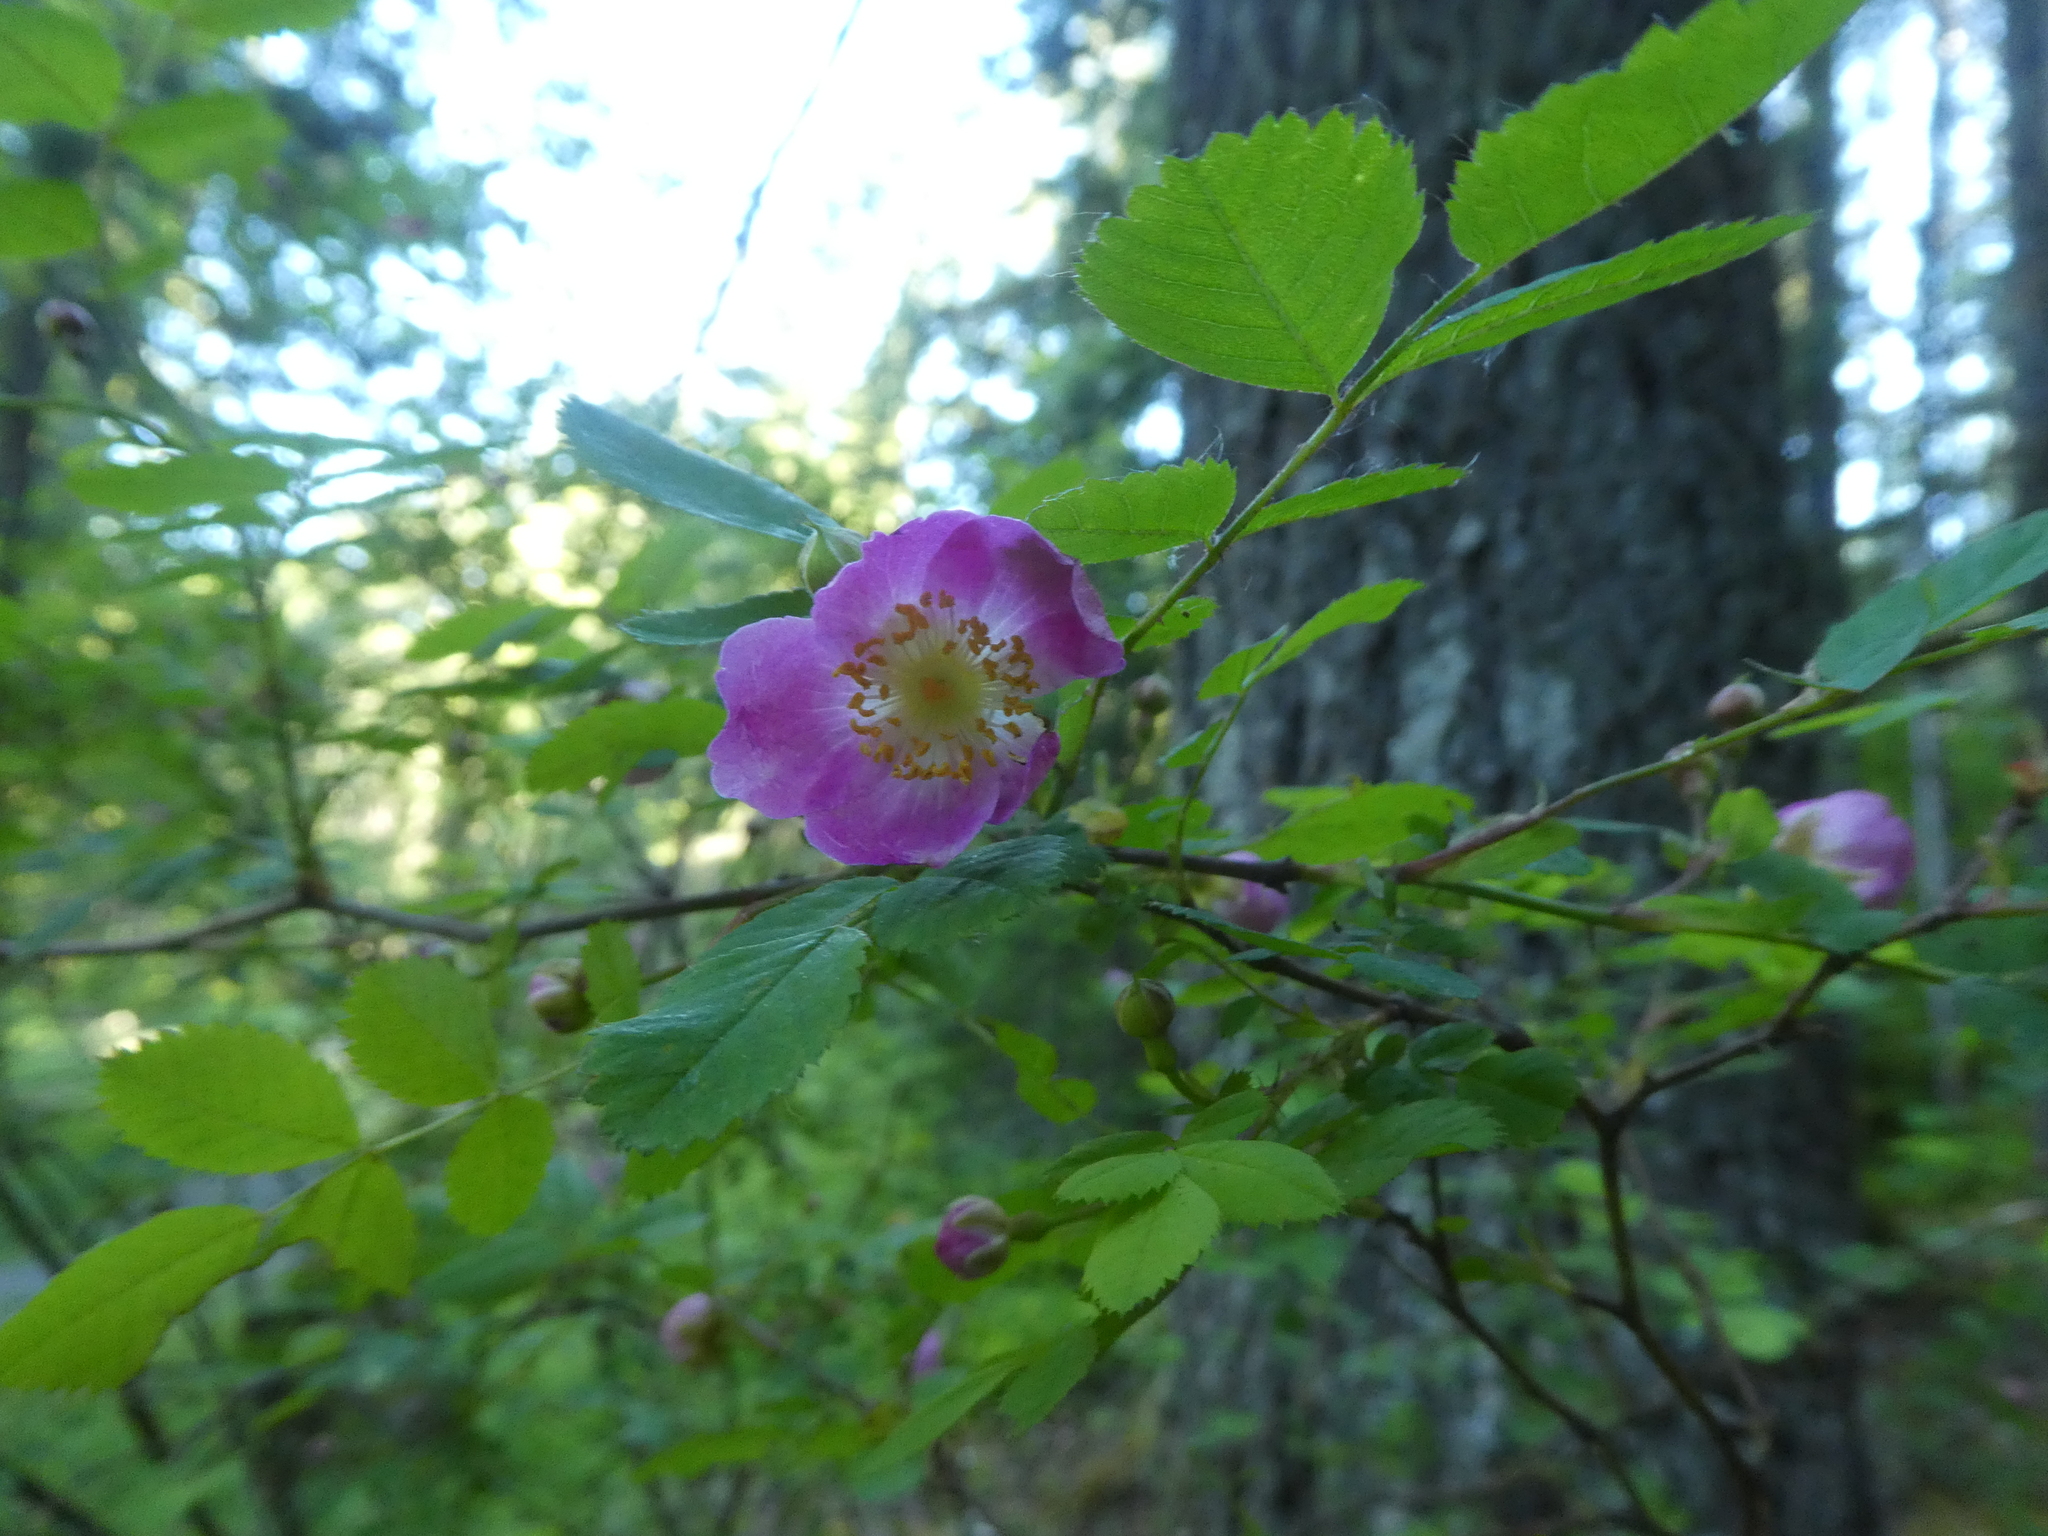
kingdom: Plantae
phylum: Tracheophyta
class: Magnoliopsida
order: Rosales
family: Rosaceae
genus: Rosa
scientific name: Rosa gymnocarpa
